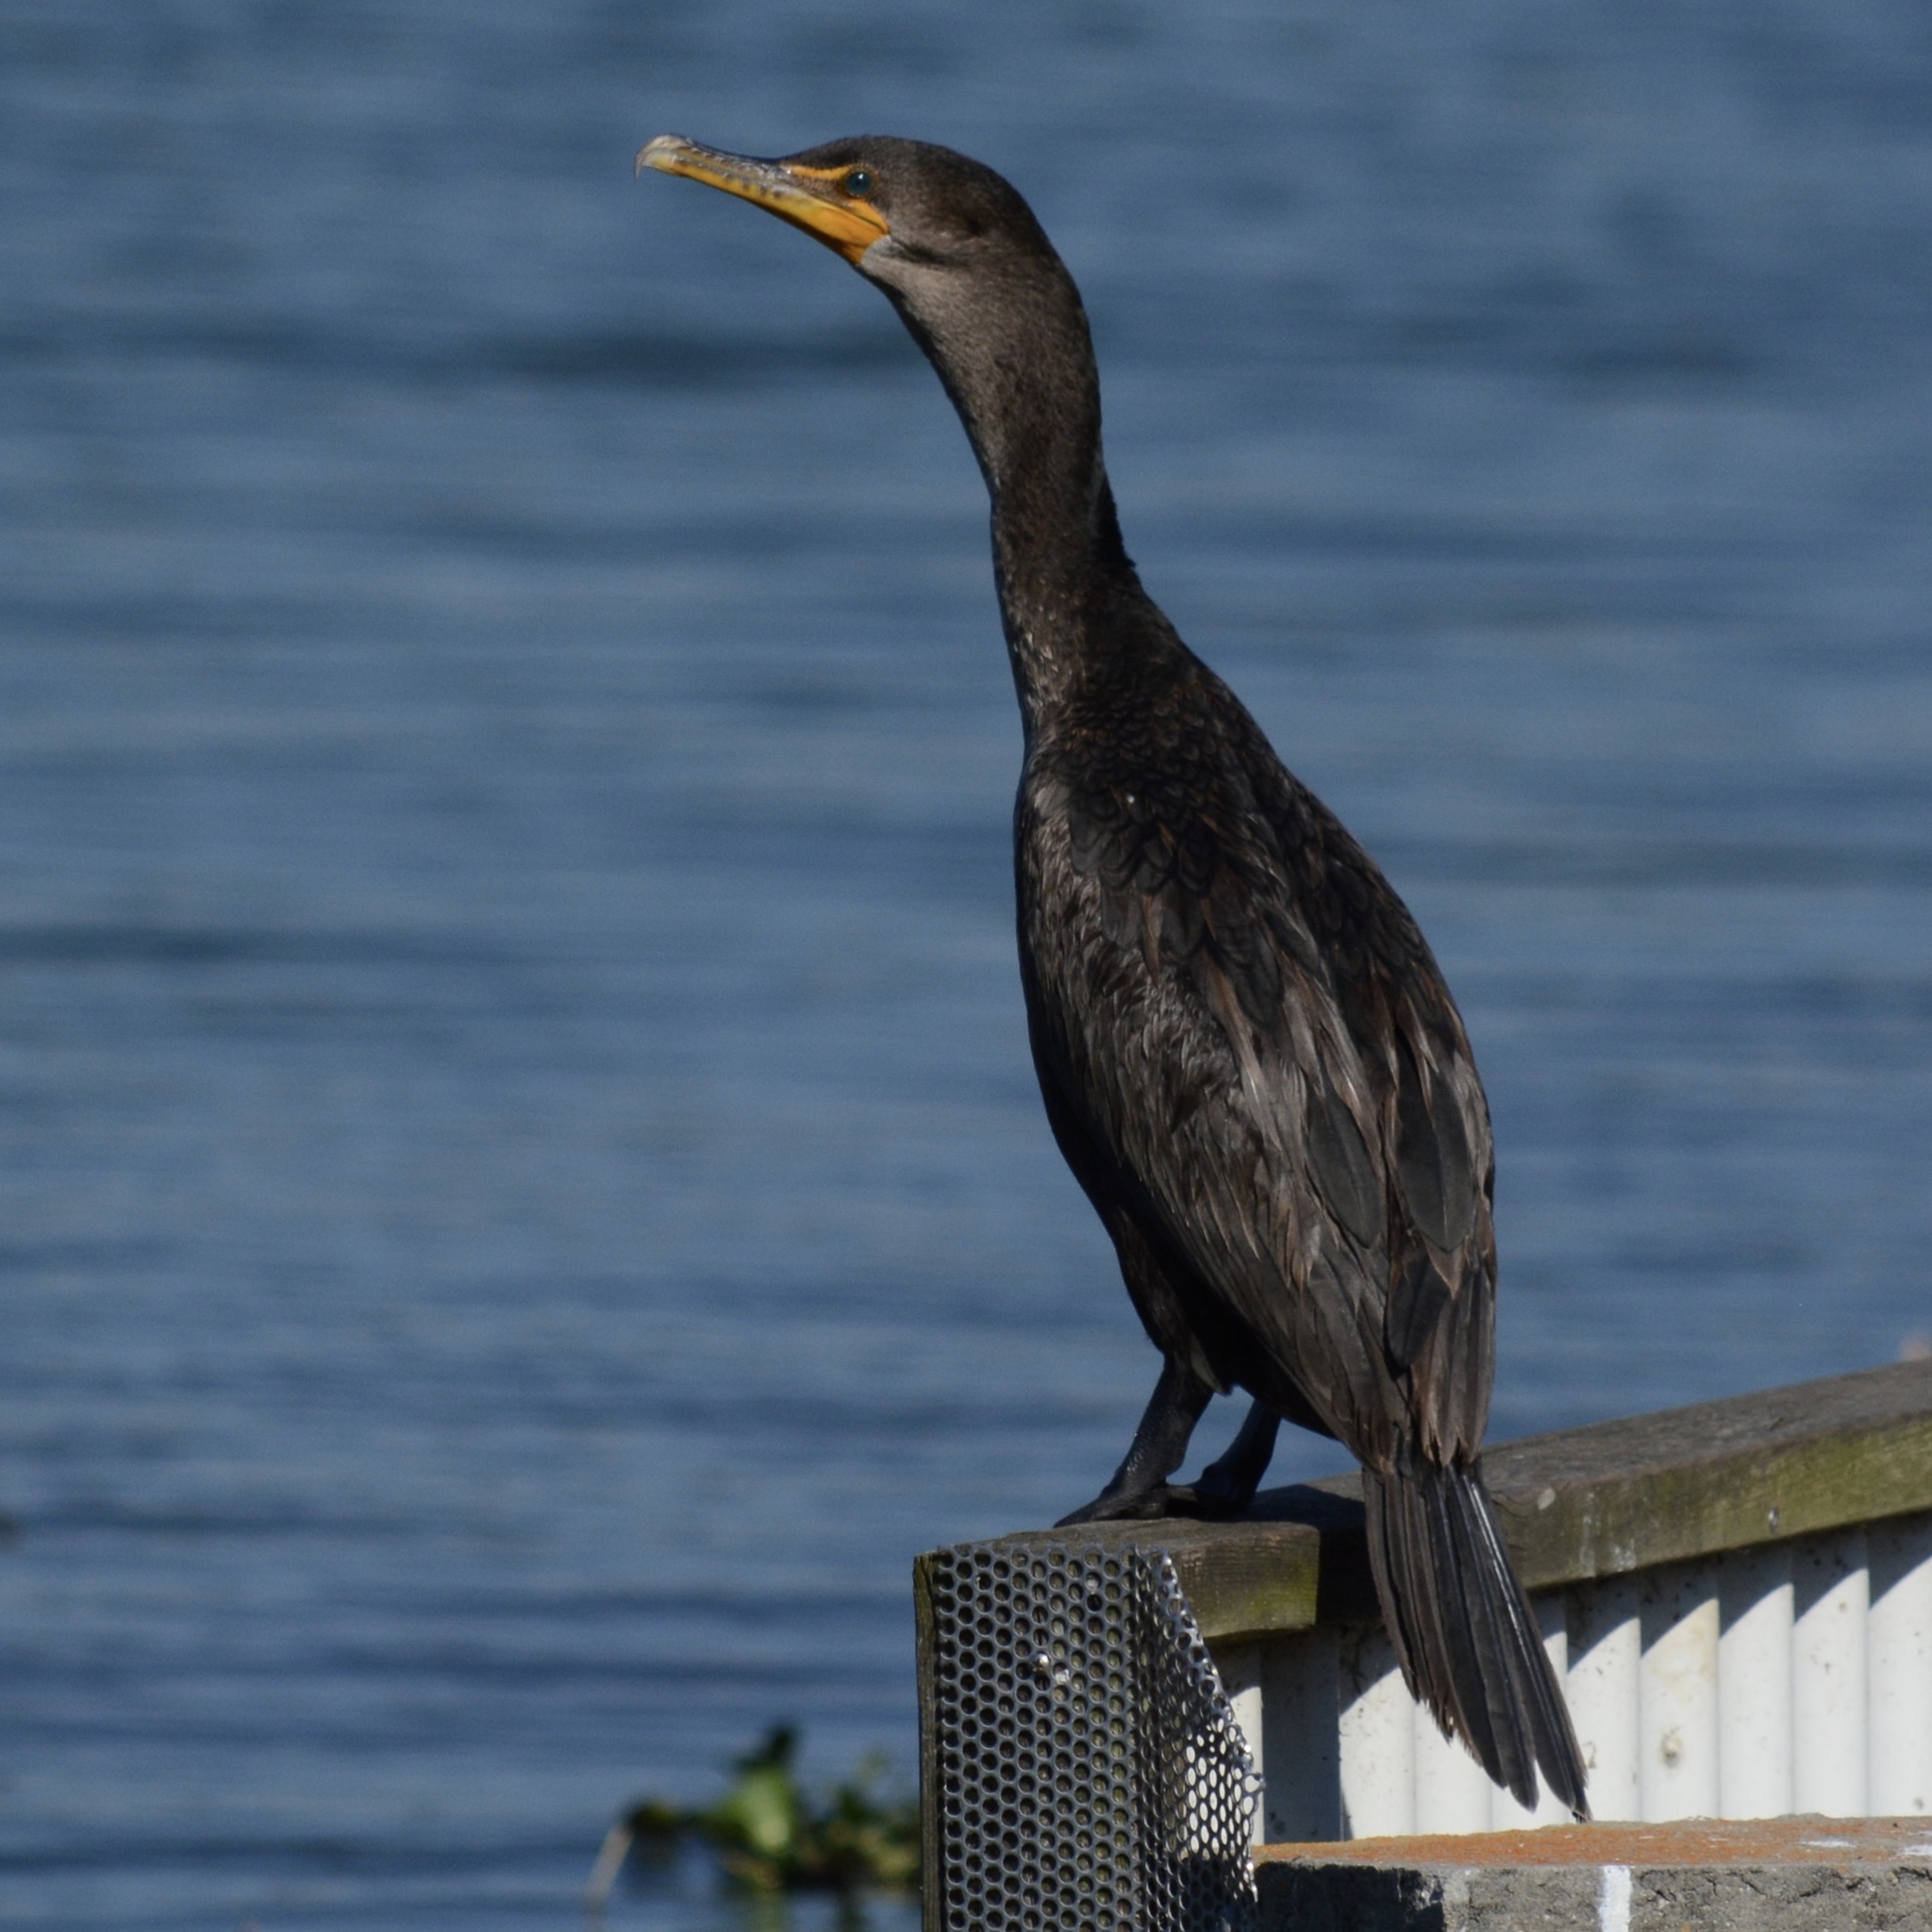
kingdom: Animalia
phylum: Chordata
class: Aves
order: Suliformes
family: Phalacrocoracidae
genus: Phalacrocorax
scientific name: Phalacrocorax auritus
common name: Double-crested cormorant
